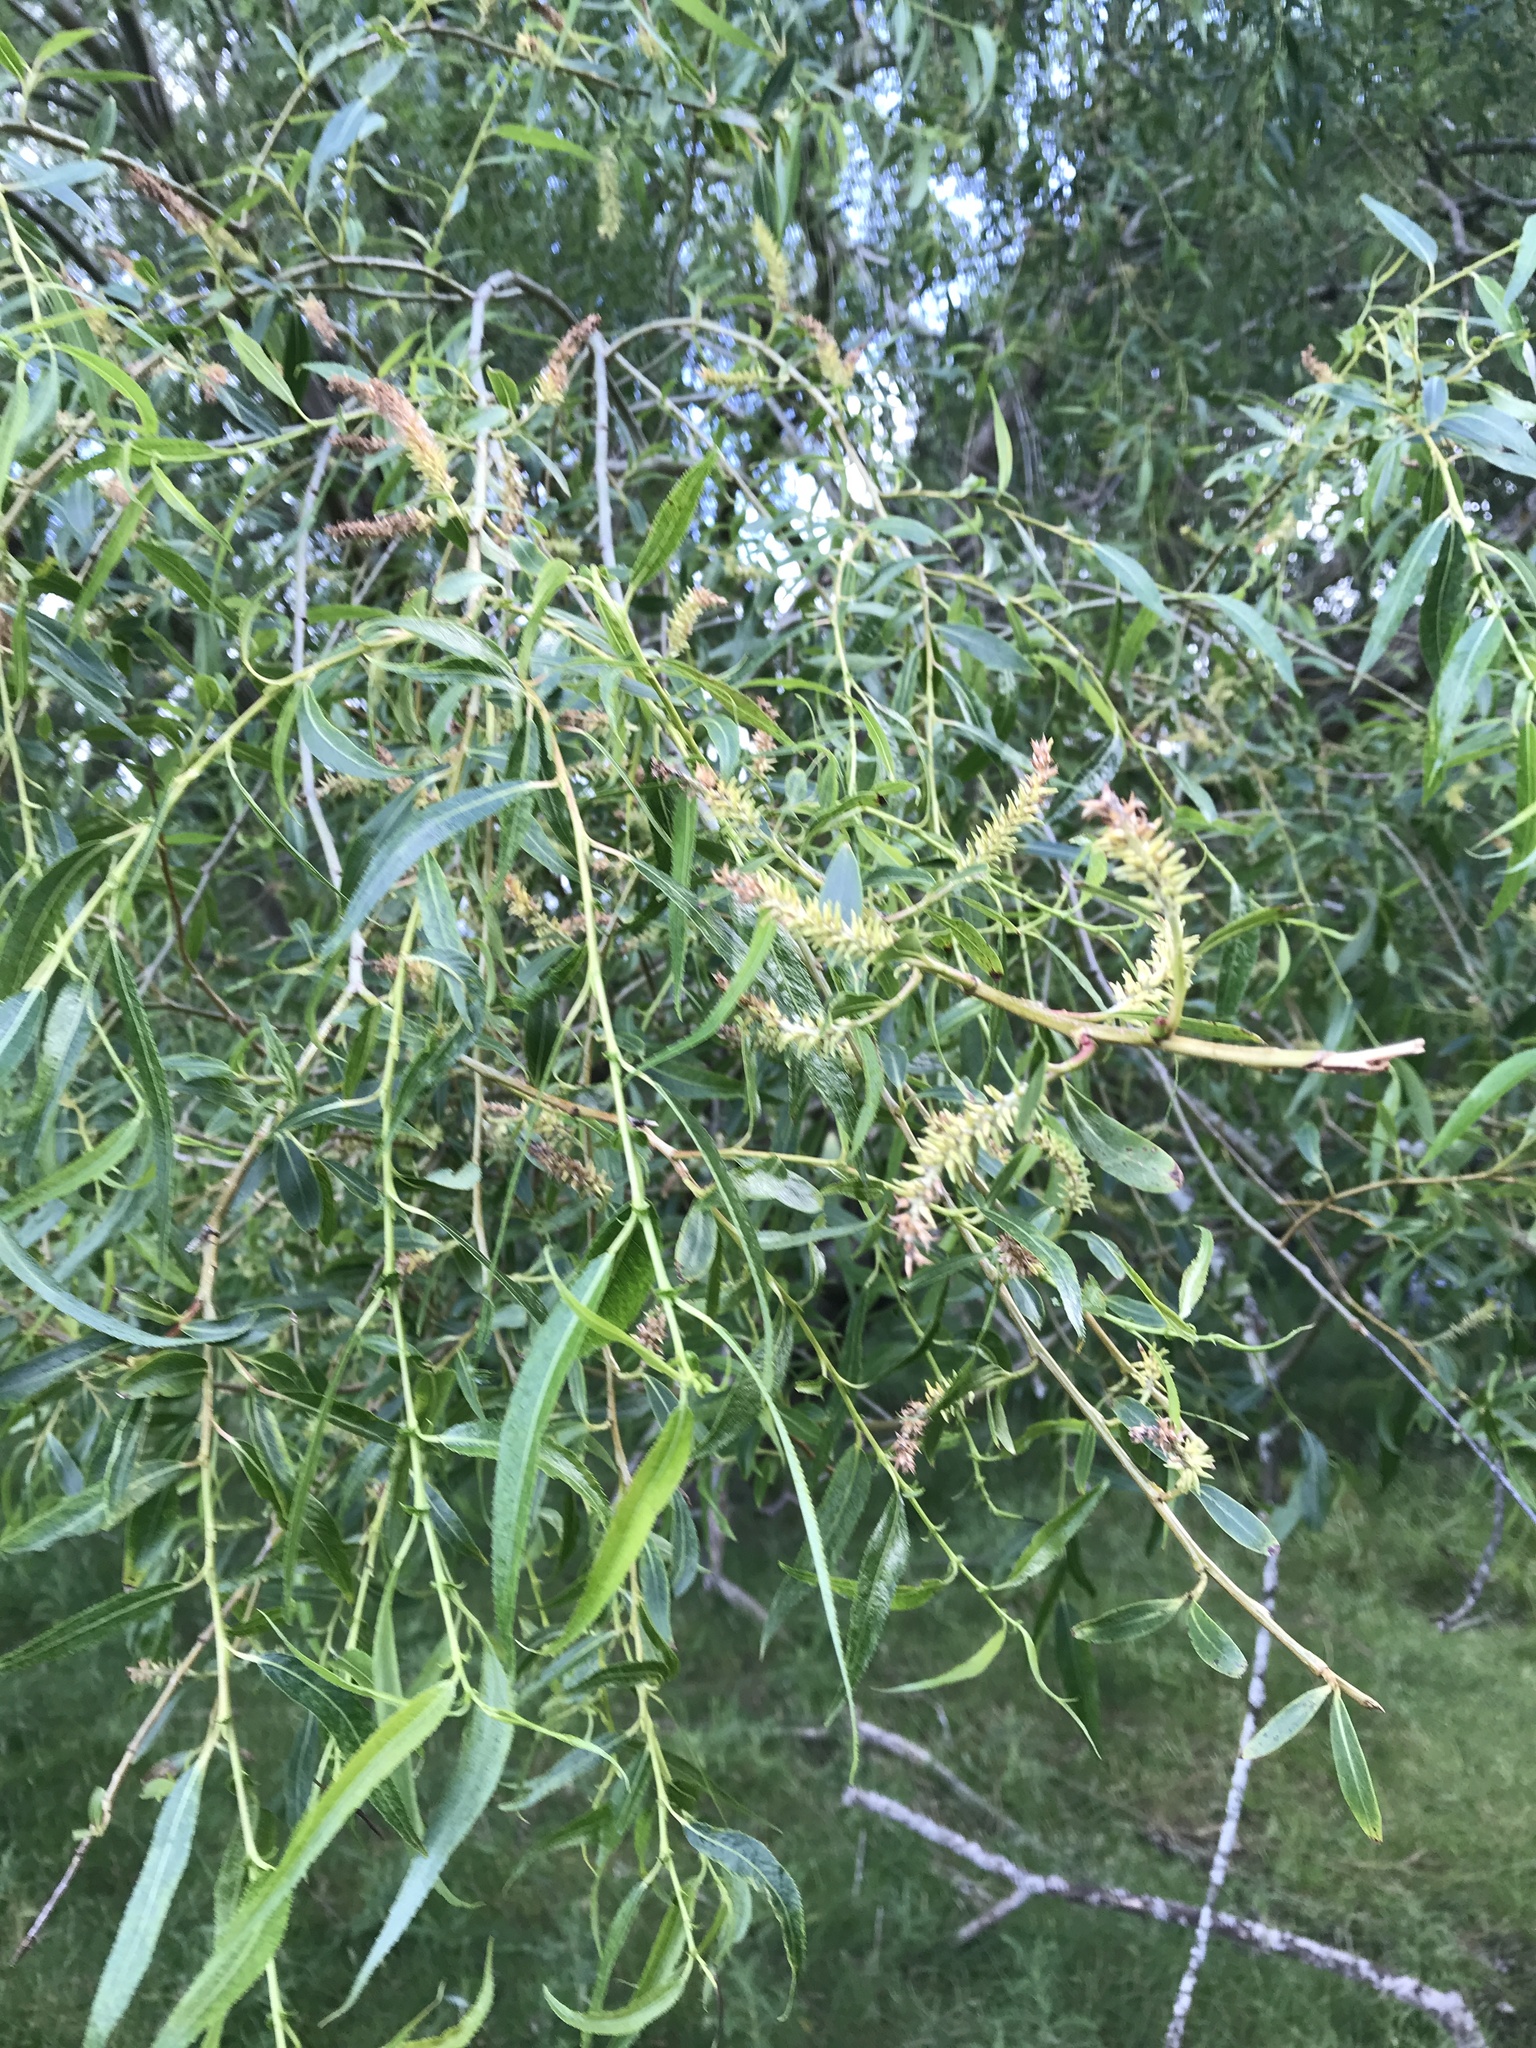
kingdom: Plantae
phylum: Tracheophyta
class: Magnoliopsida
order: Malpighiales
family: Salicaceae
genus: Salix
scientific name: Salix fragilis
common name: Crack willow
